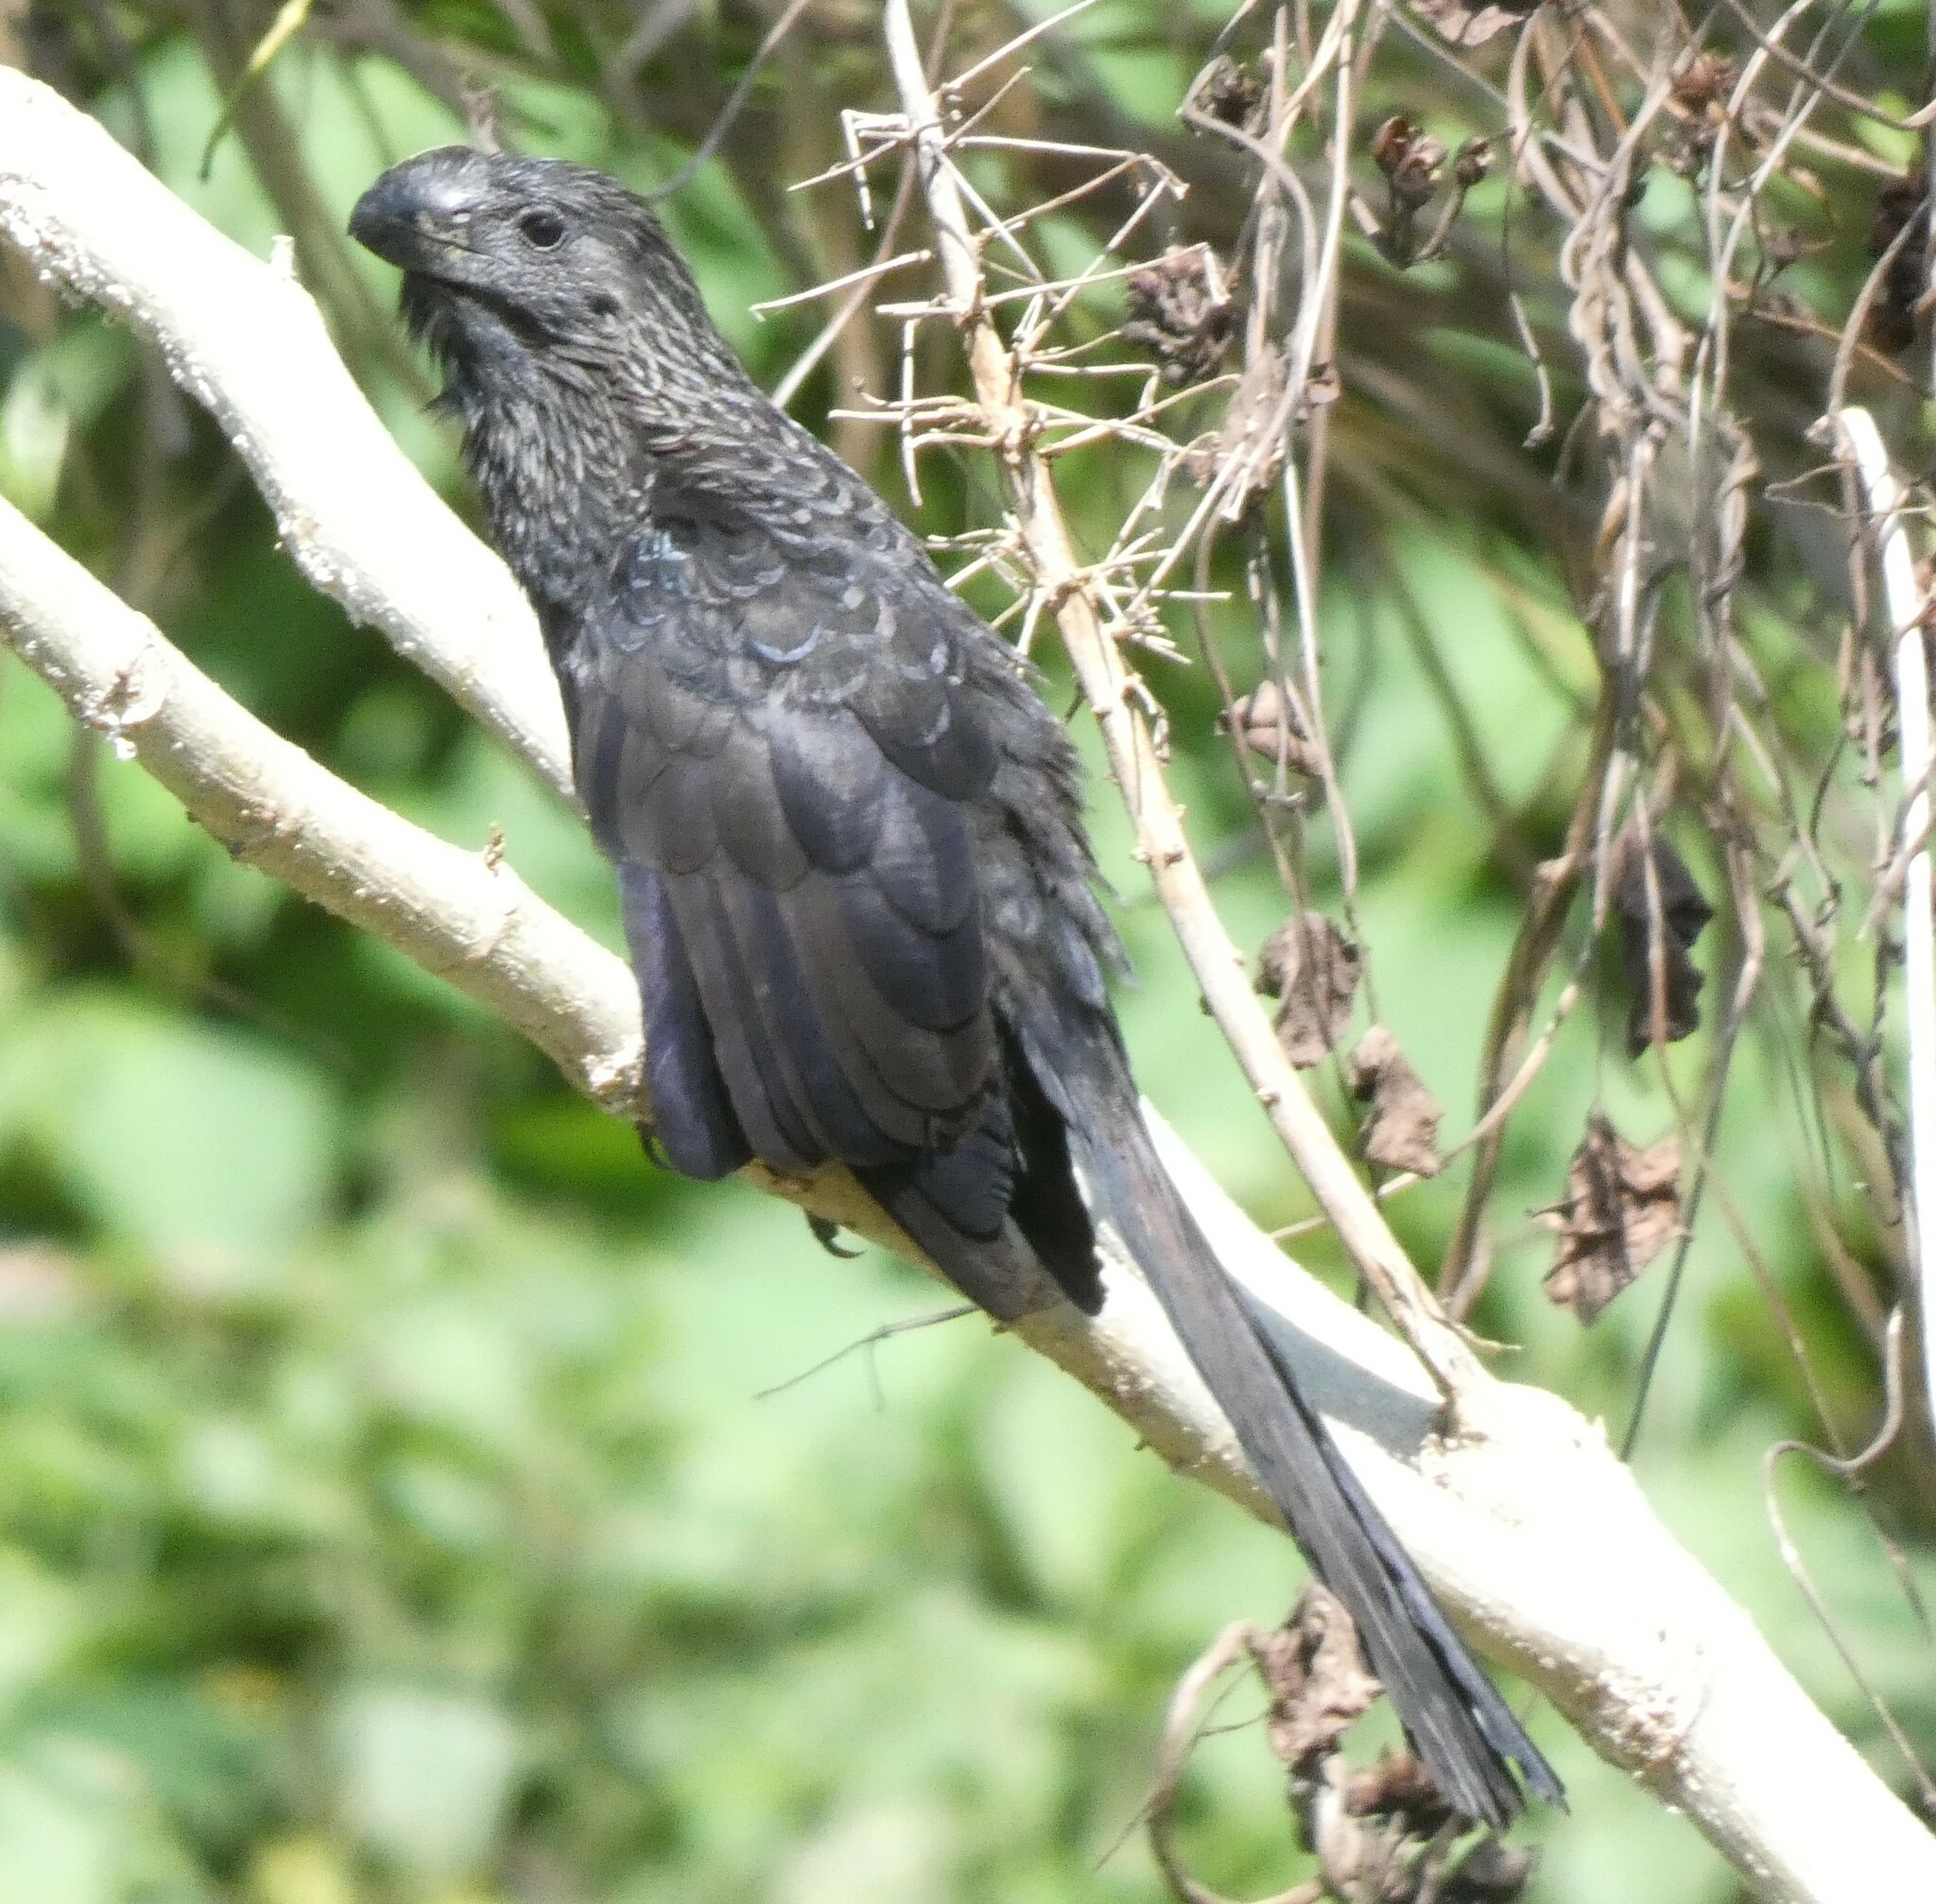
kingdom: Animalia
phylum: Chordata
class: Aves
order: Cuculiformes
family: Cuculidae
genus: Crotophaga
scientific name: Crotophaga ani
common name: Smooth-billed ani
